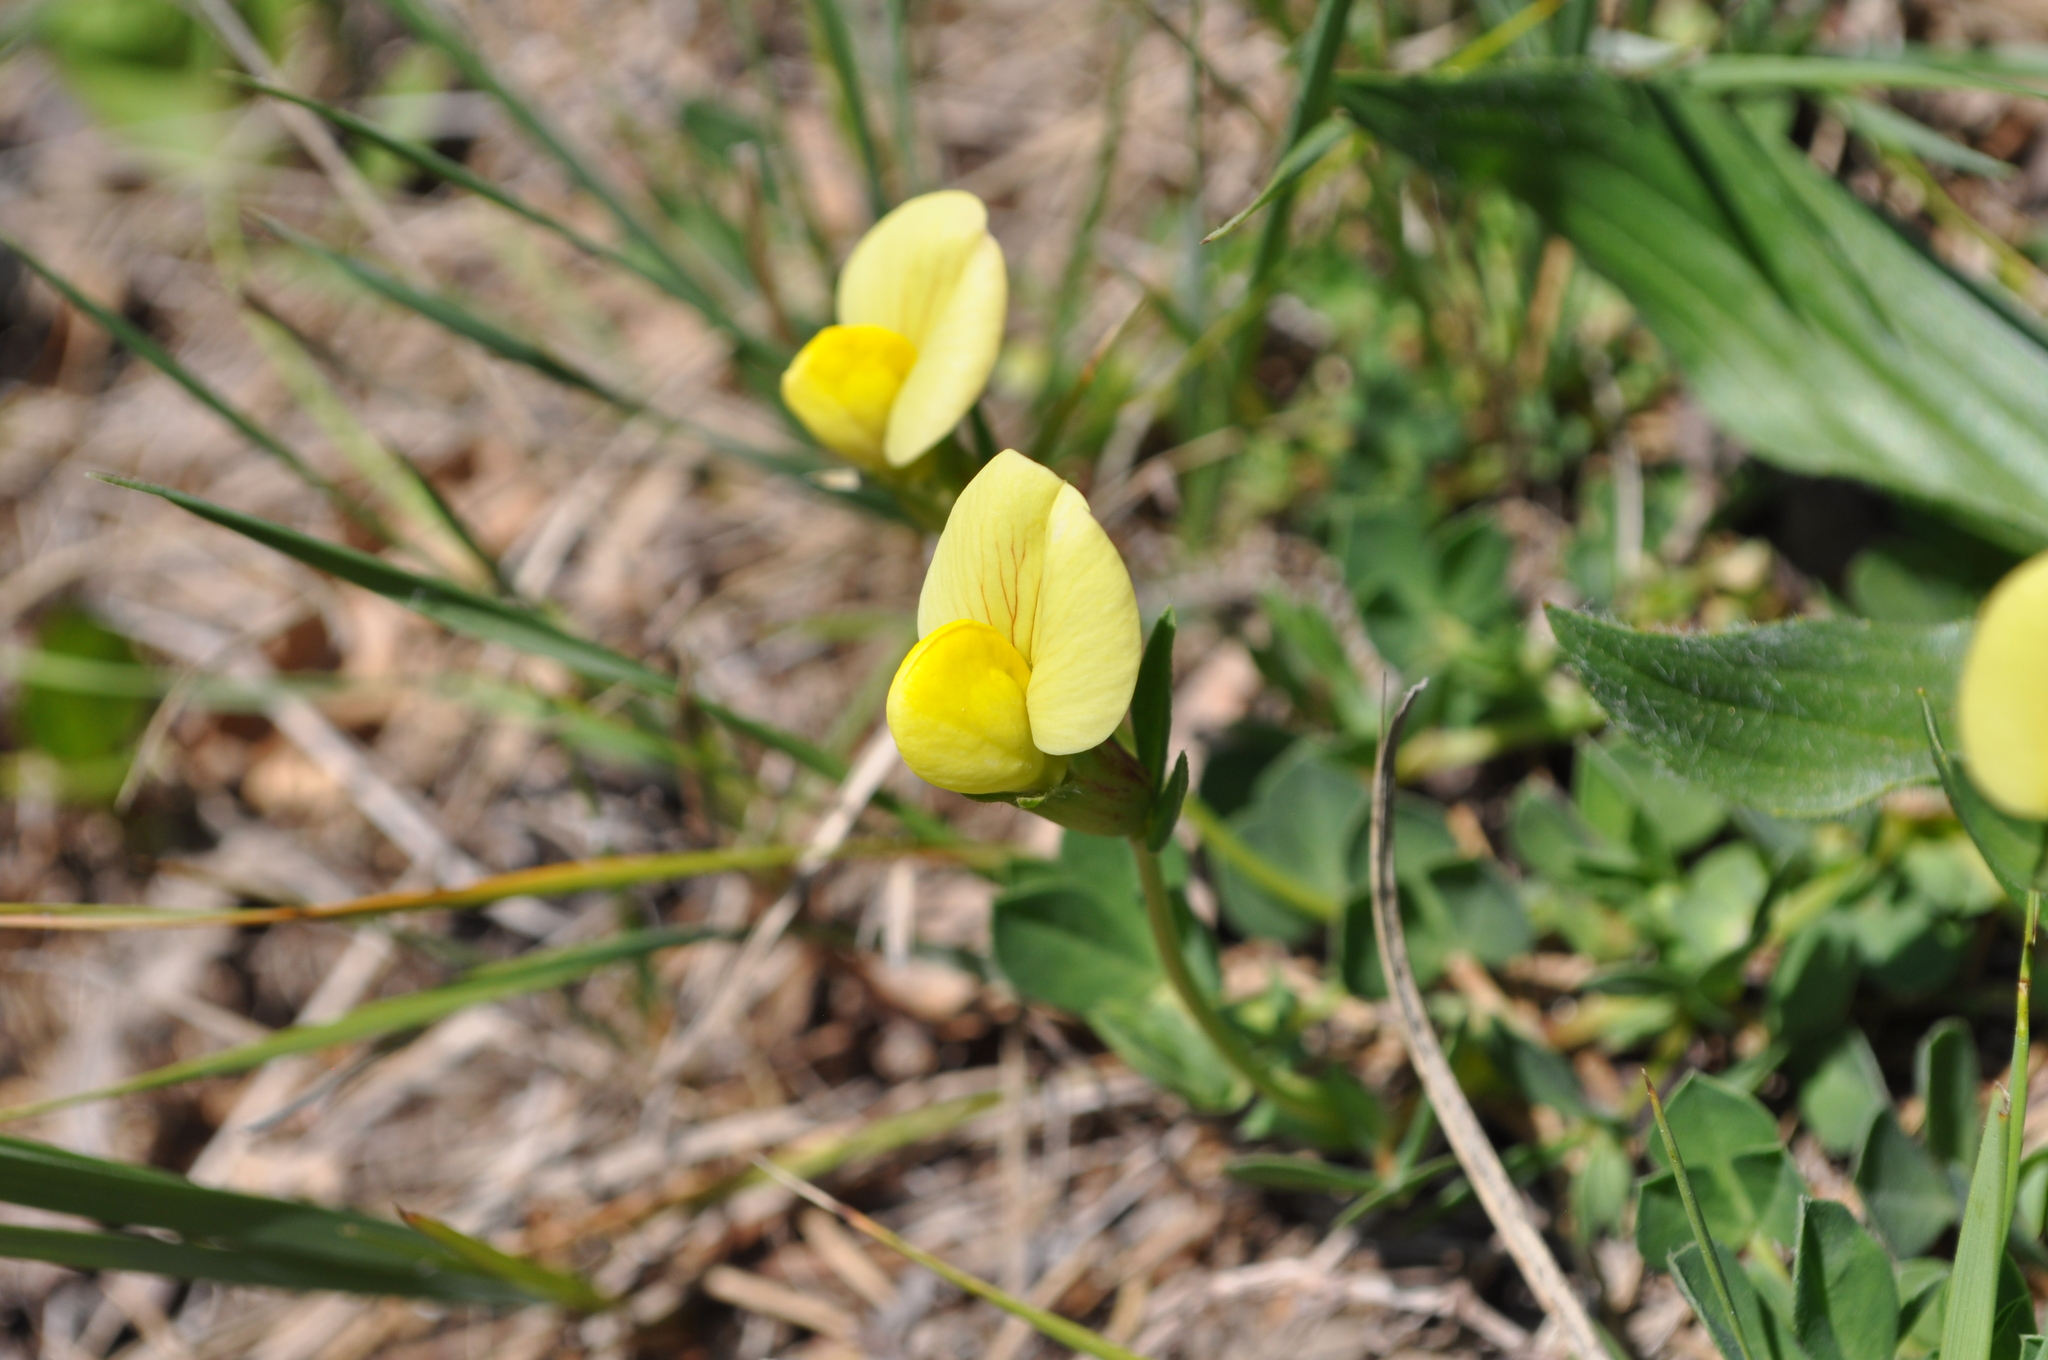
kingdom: Plantae
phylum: Tracheophyta
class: Magnoliopsida
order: Fabales
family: Fabaceae
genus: Lotus
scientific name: Lotus maritimus
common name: Dragon's-teeth
